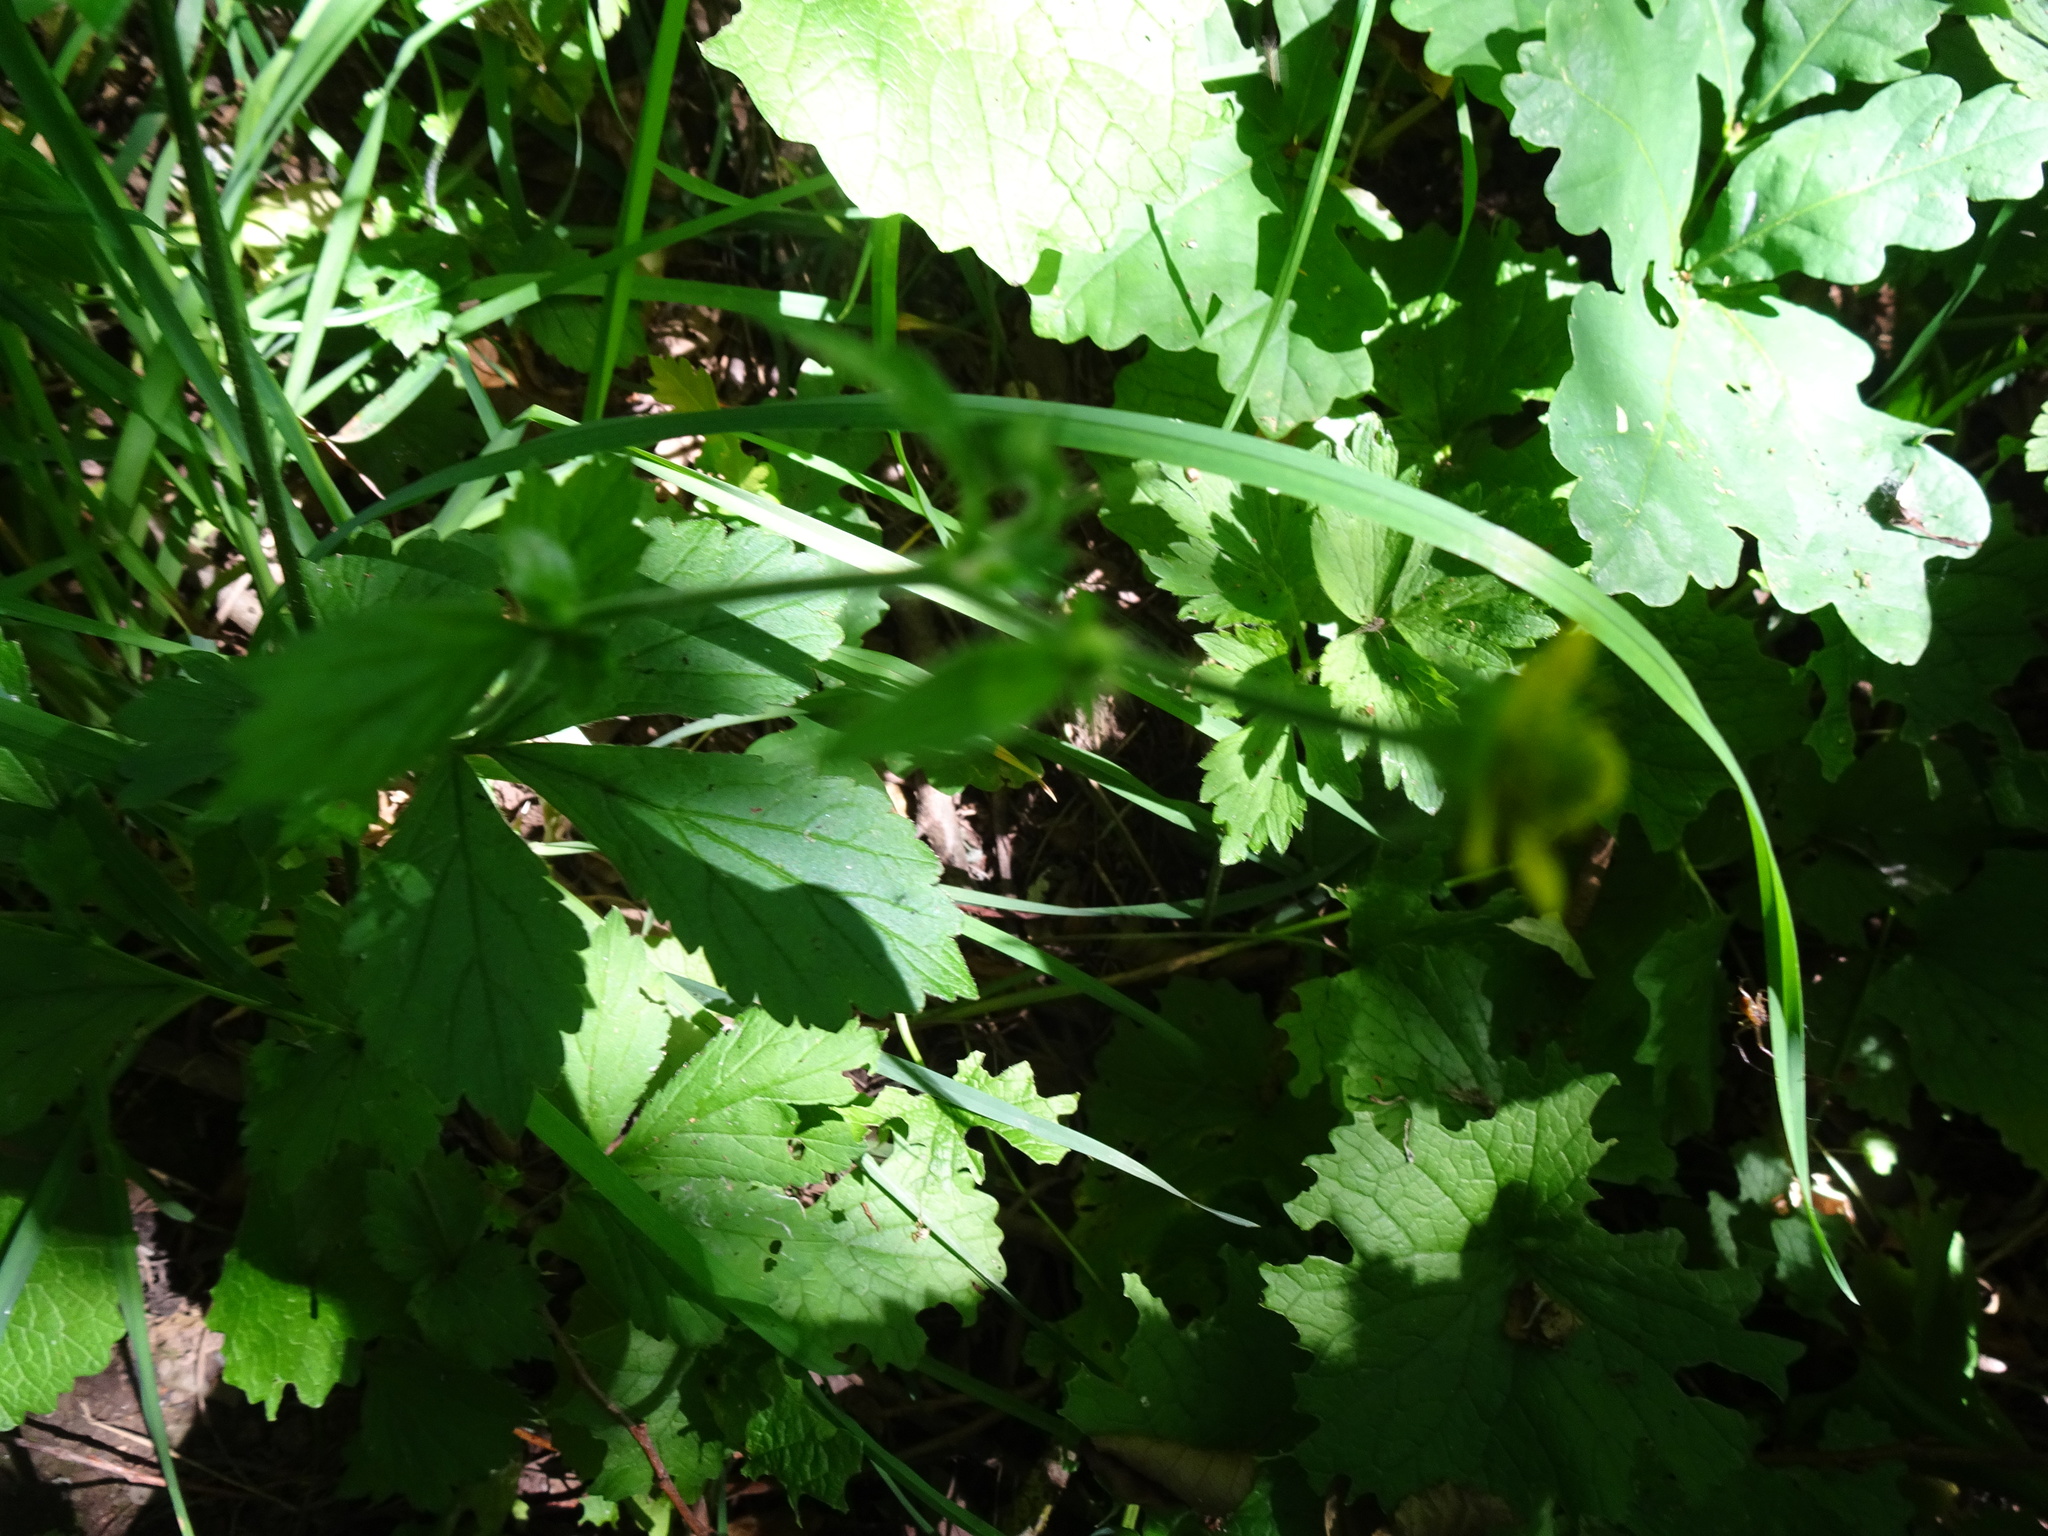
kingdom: Plantae
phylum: Tracheophyta
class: Magnoliopsida
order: Rosales
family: Rosaceae
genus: Geum
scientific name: Geum urbanum
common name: Wood avens
